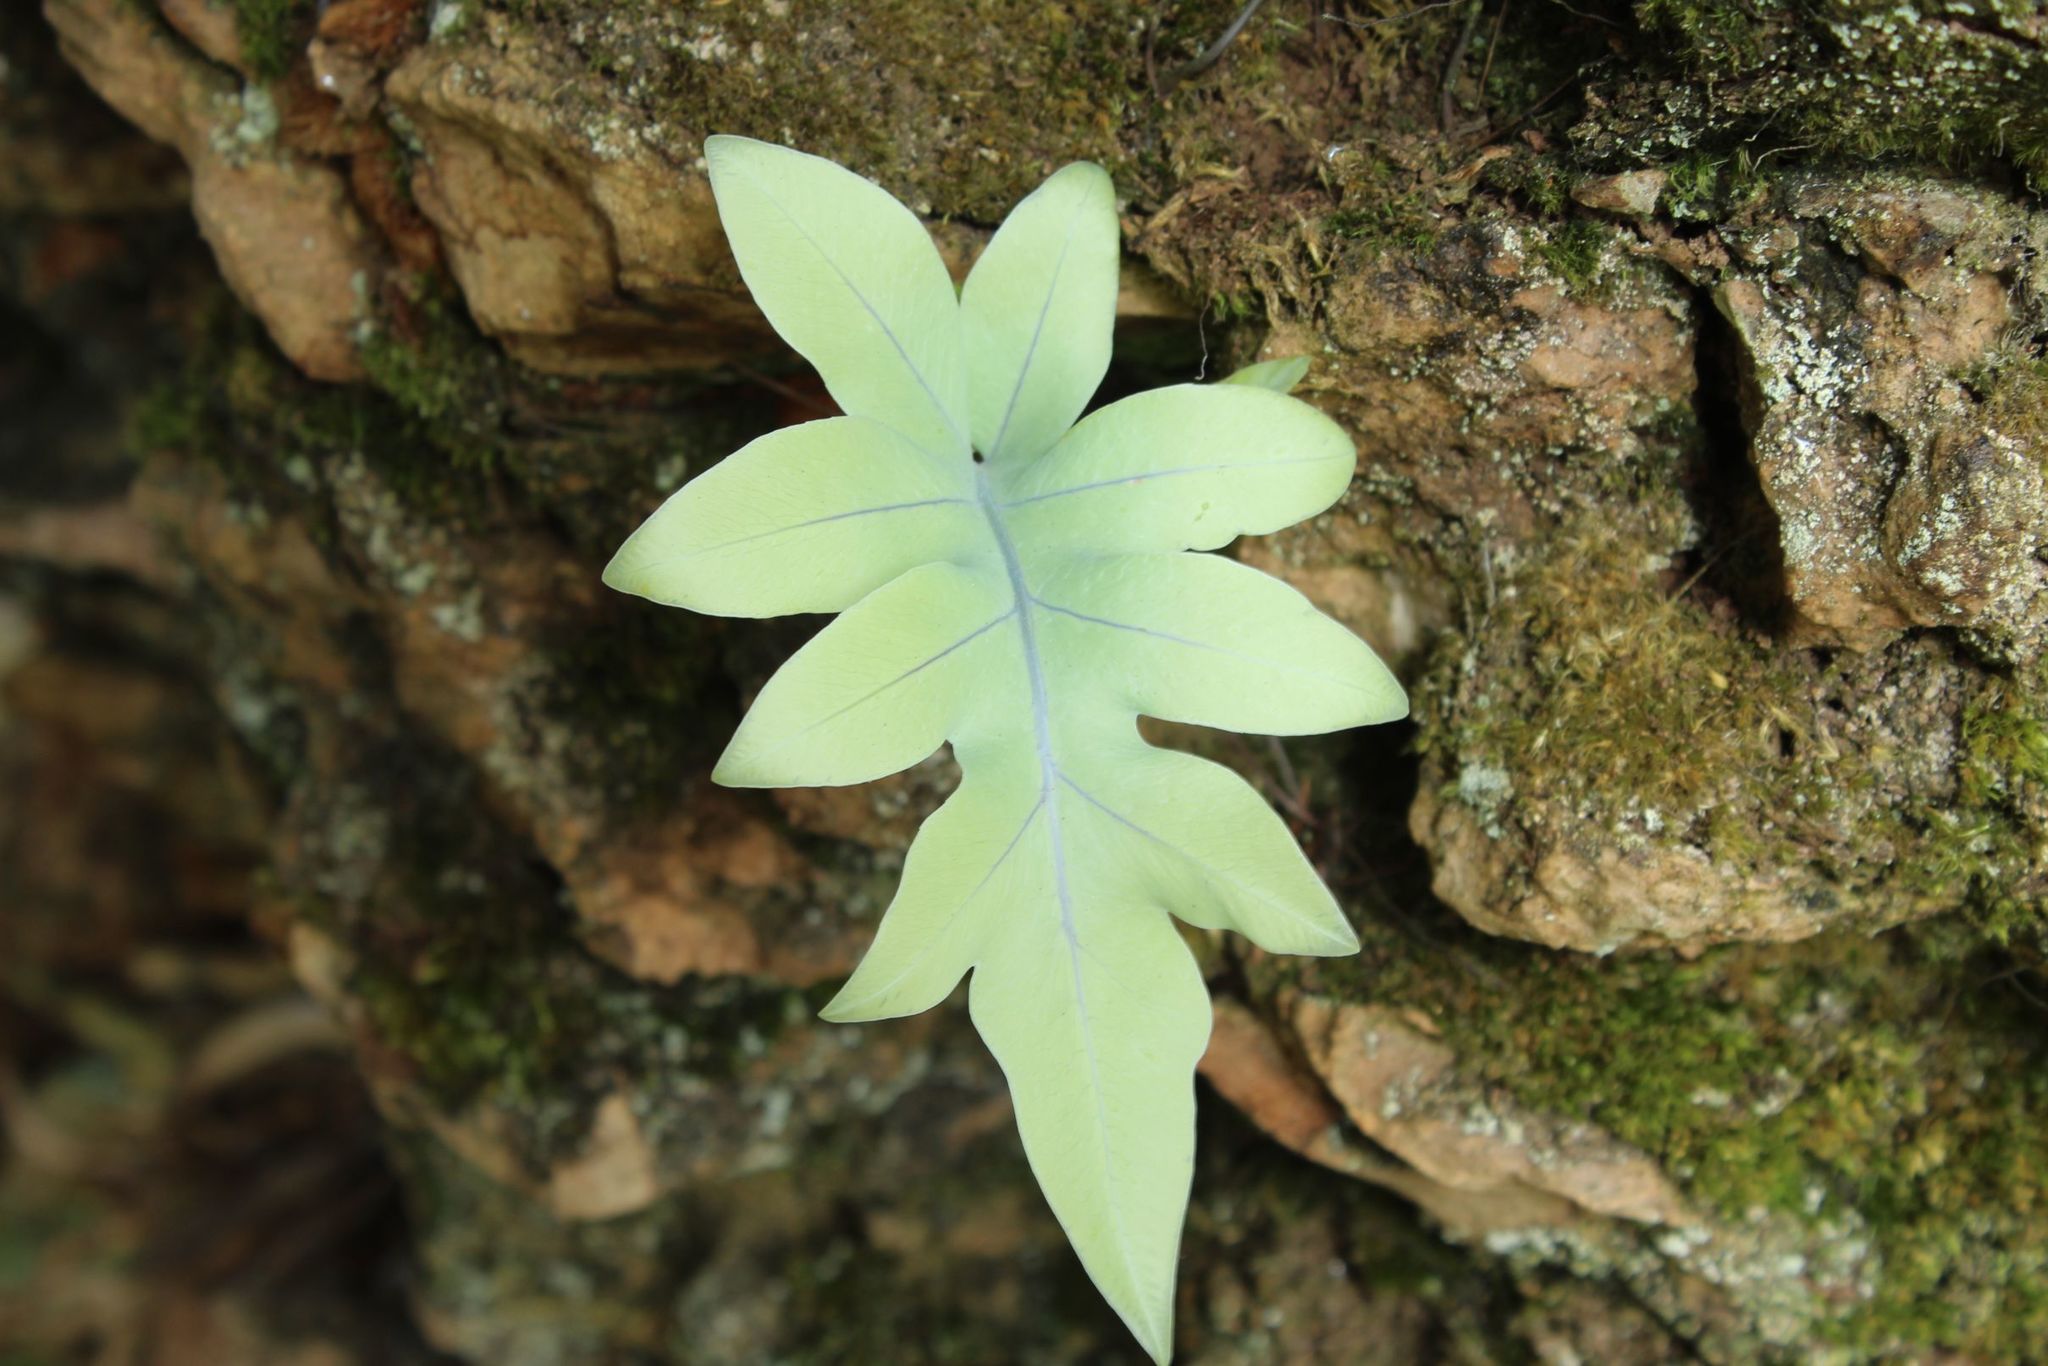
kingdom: Plantae
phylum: Tracheophyta
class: Polypodiopsida
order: Polypodiales
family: Polypodiaceae
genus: Phlebodium
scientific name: Phlebodium pseudoaureum
